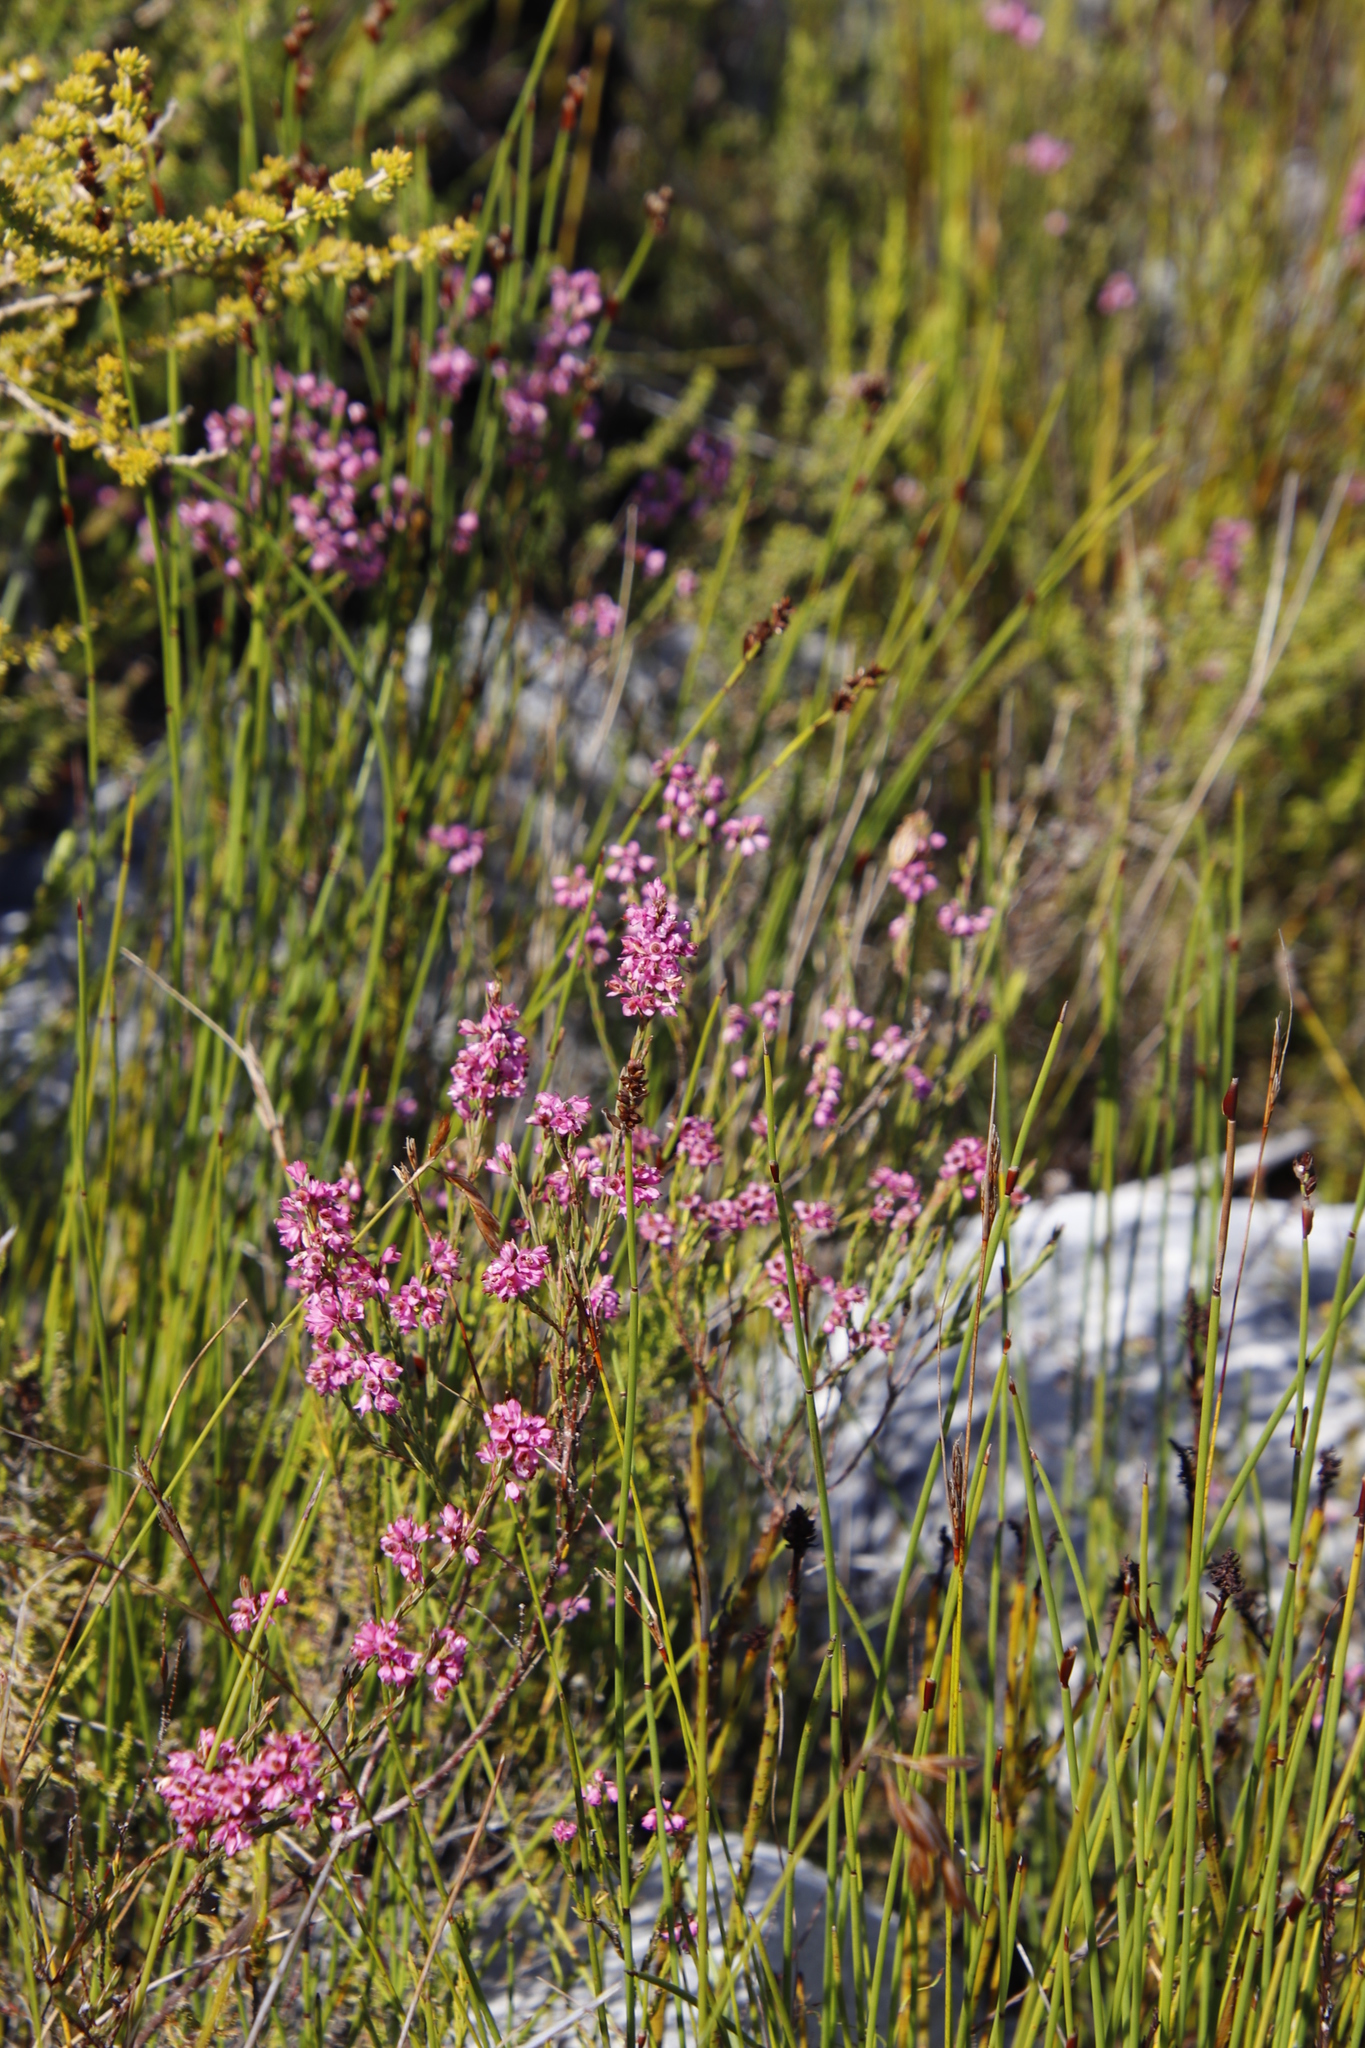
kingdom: Plantae
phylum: Tracheophyta
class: Magnoliopsida
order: Ericales
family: Ericaceae
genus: Erica
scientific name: Erica corifolia
